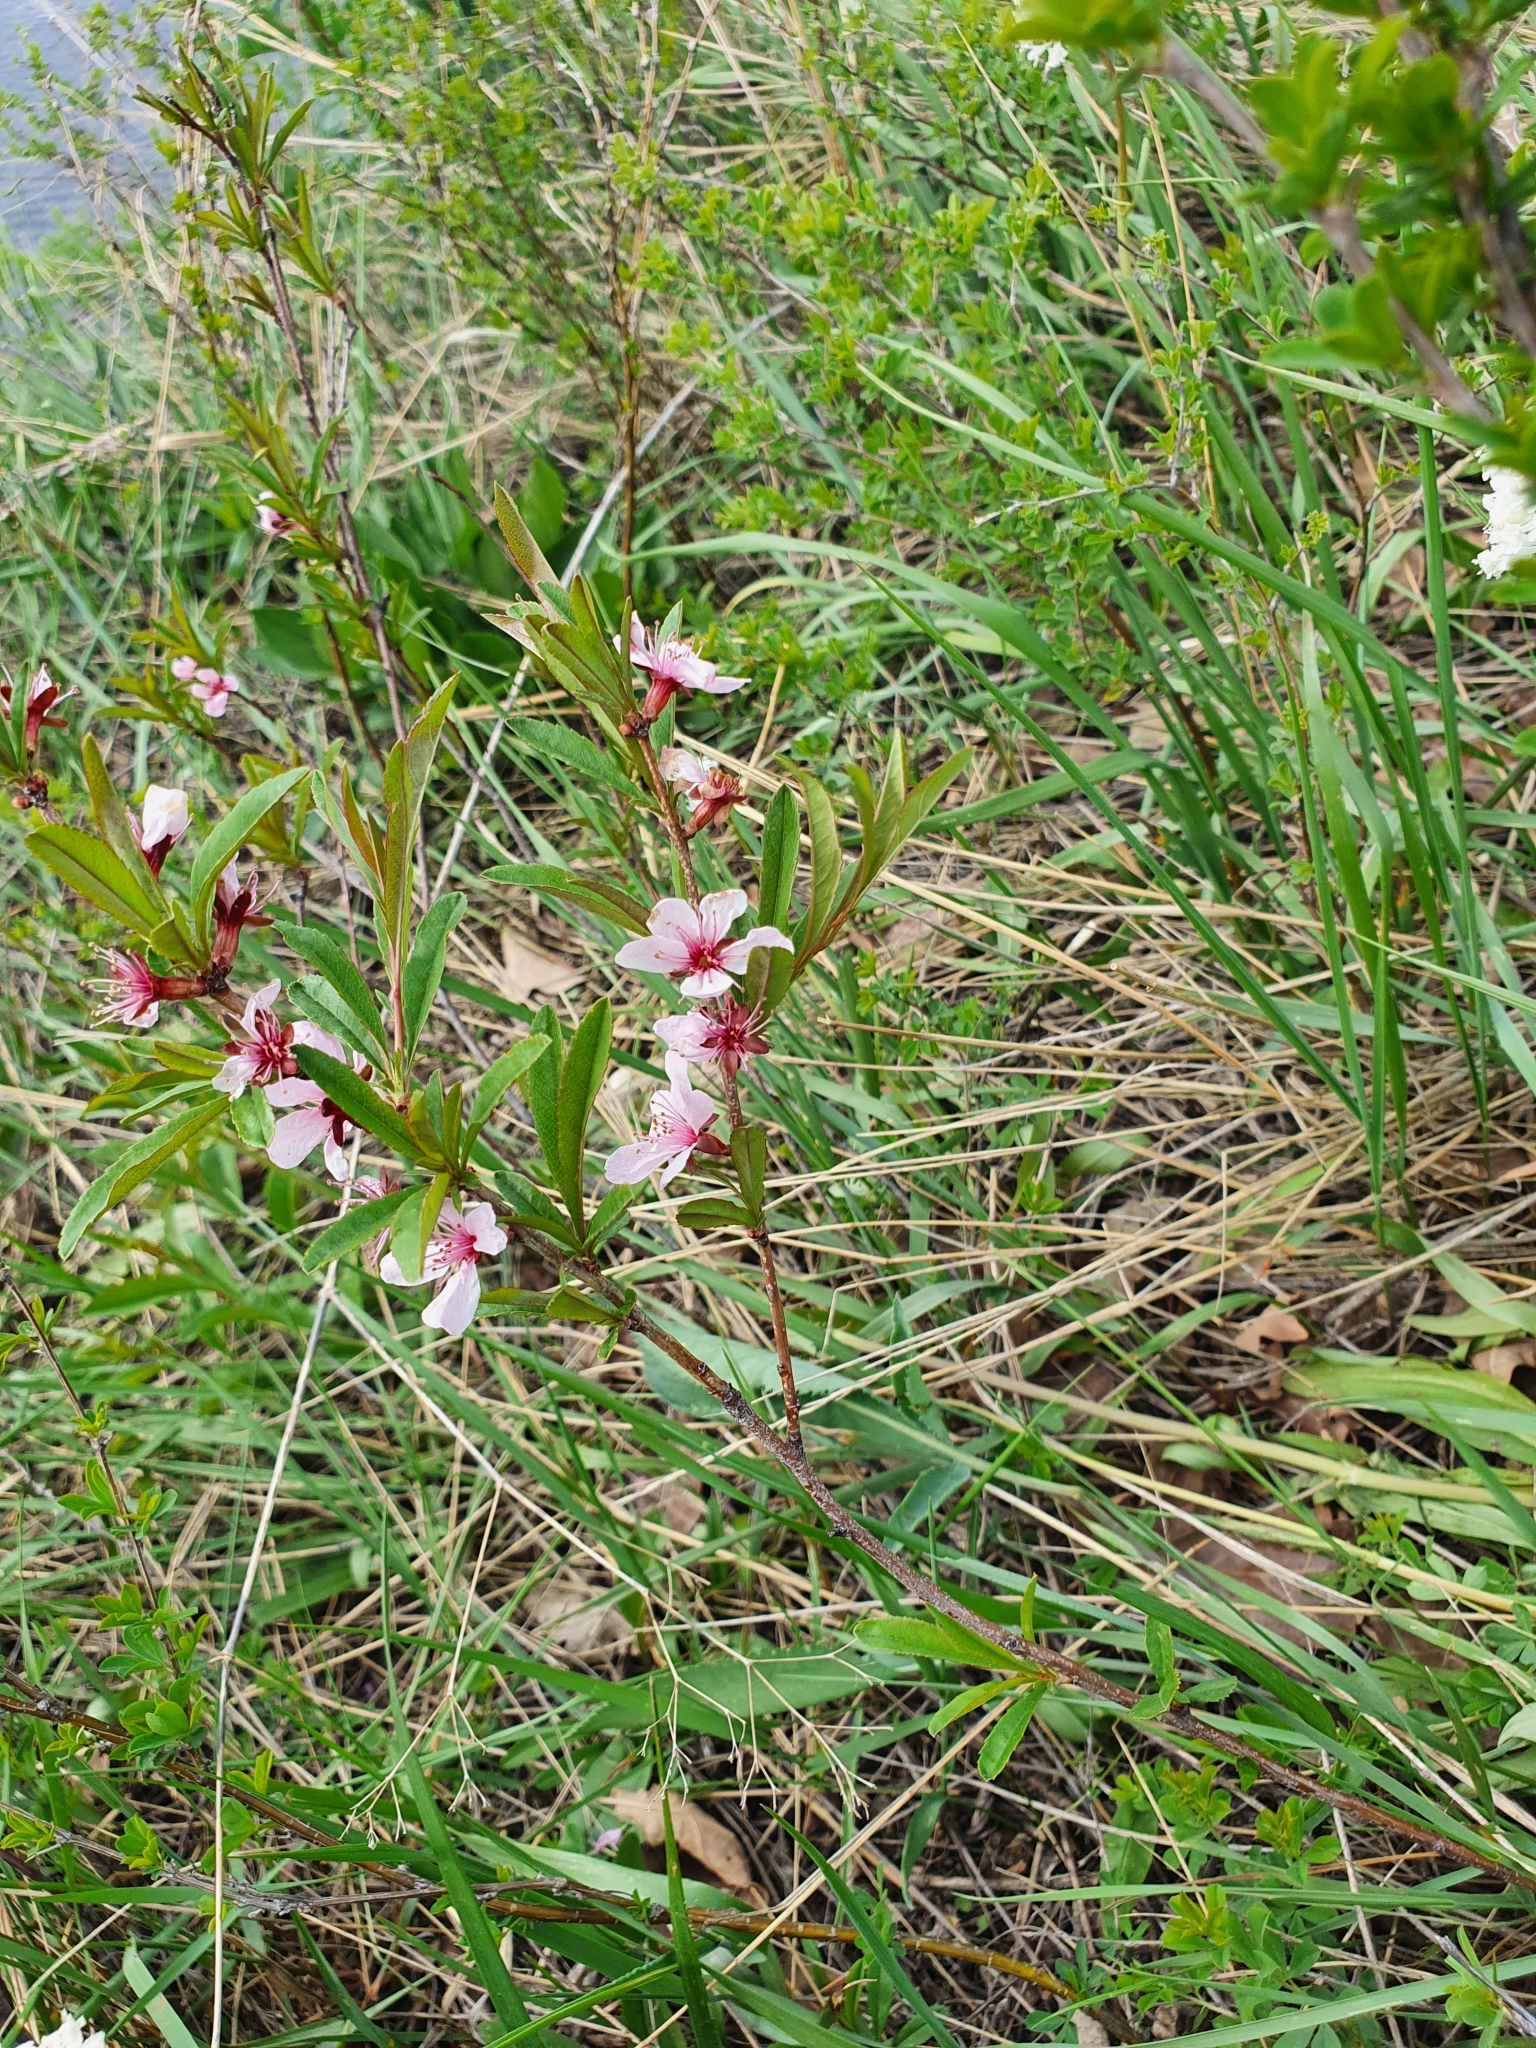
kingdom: Plantae
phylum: Tracheophyta
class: Magnoliopsida
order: Rosales
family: Rosaceae
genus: Prunus
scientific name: Prunus tenella
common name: Dwarf russian almond
